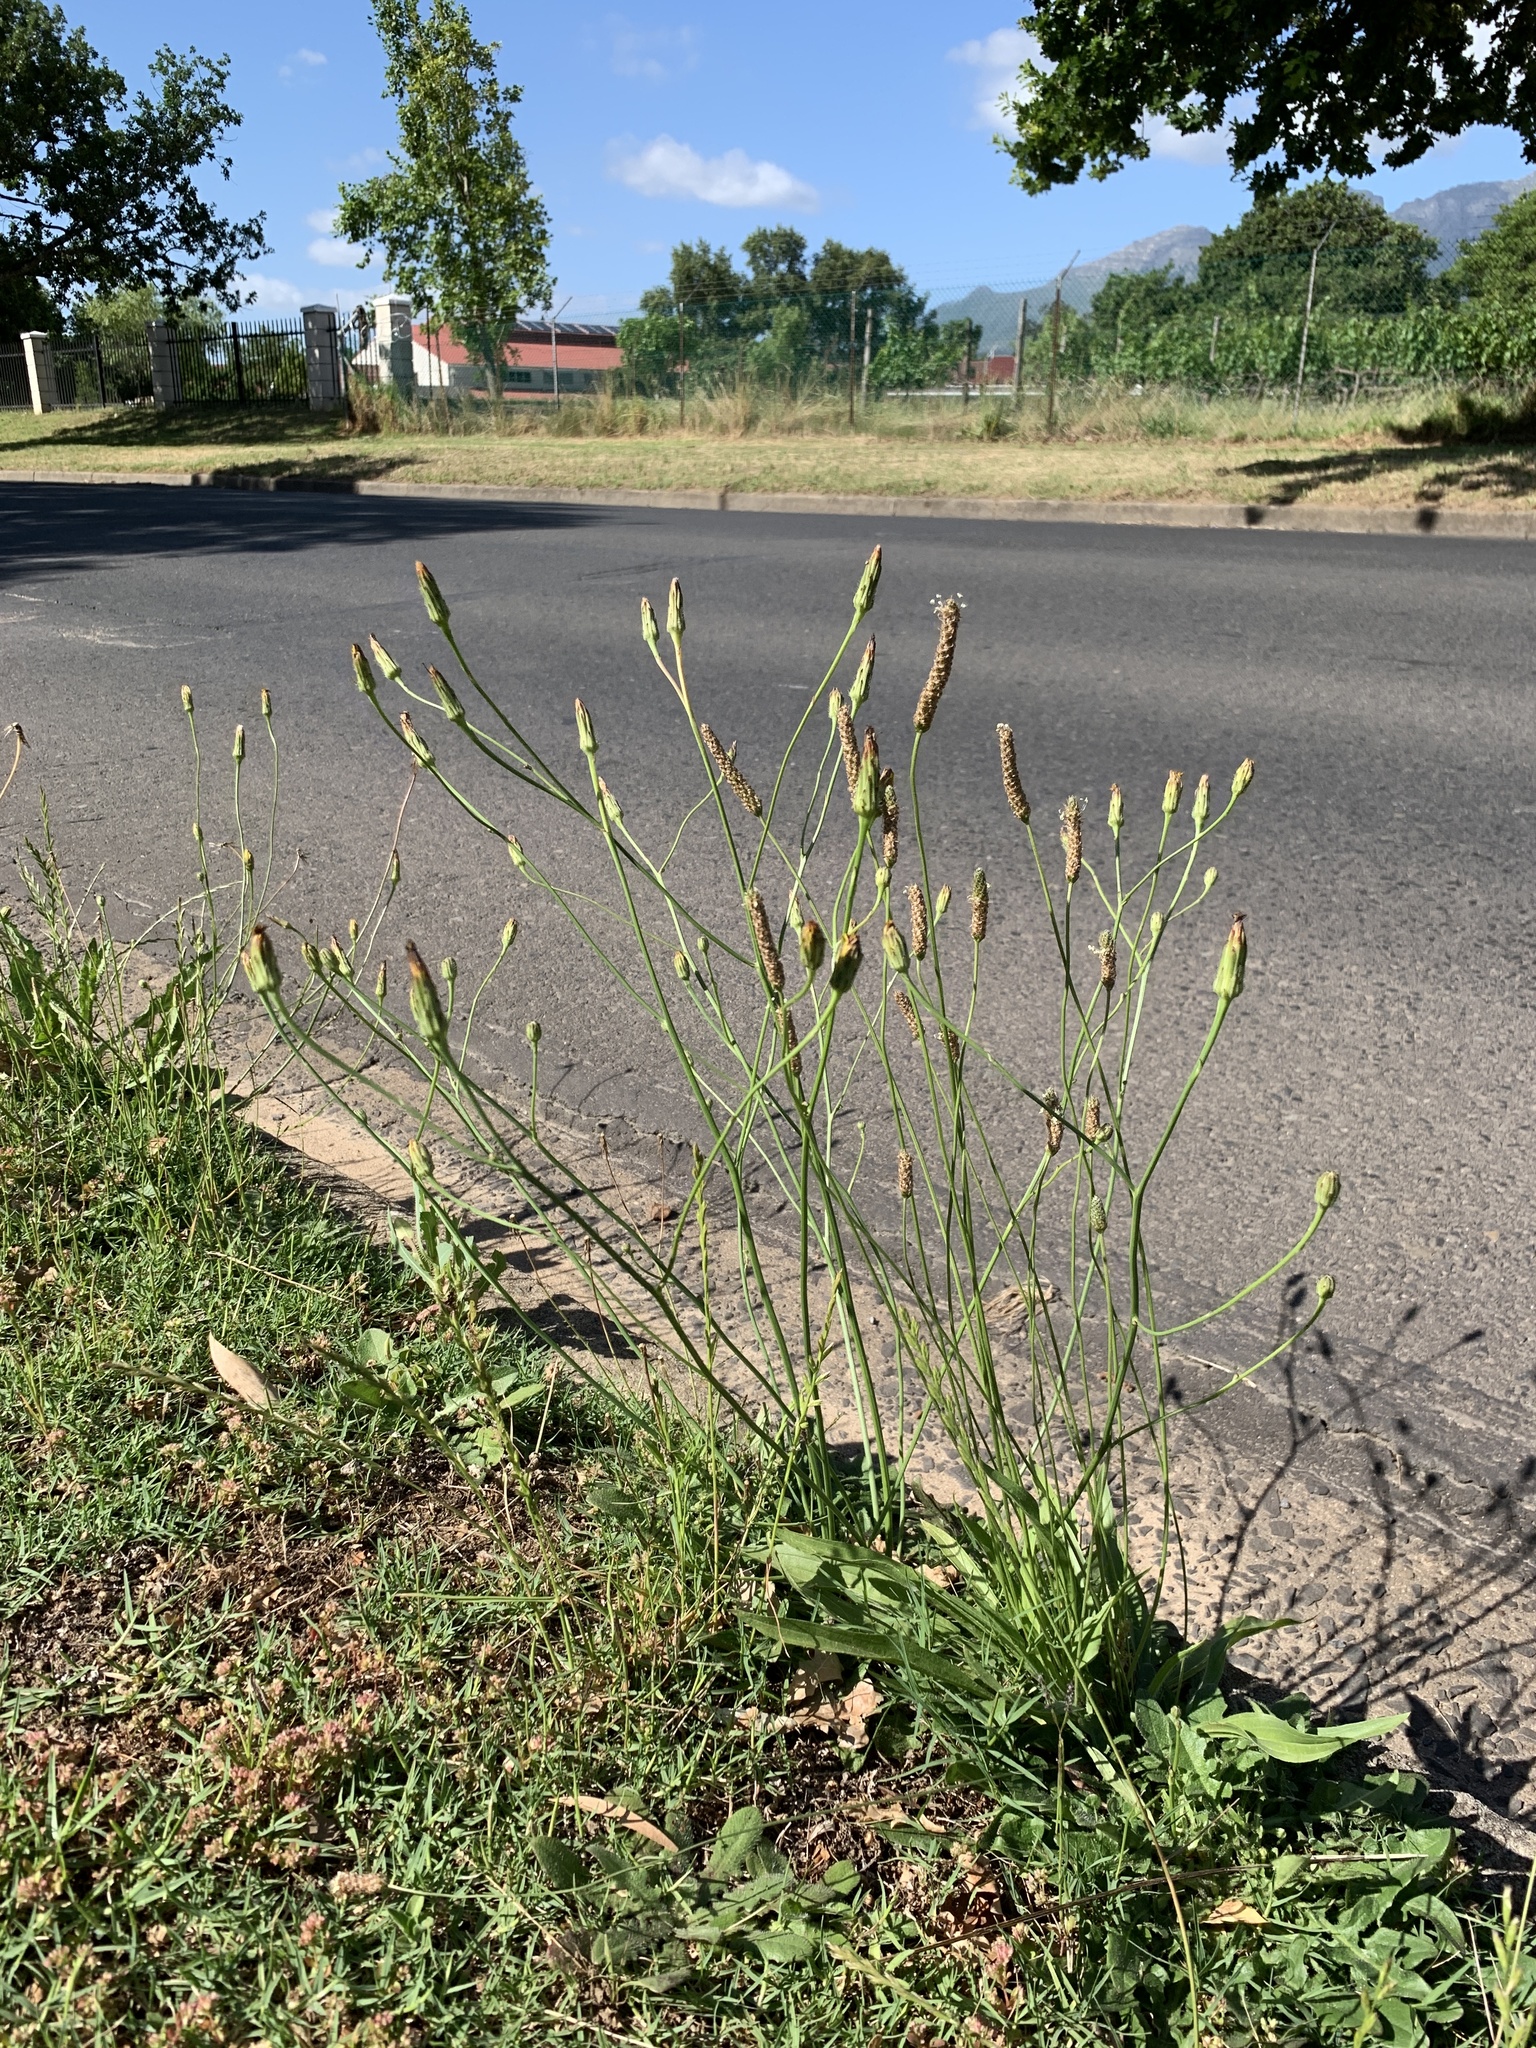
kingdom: Plantae
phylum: Tracheophyta
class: Magnoliopsida
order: Asterales
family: Asteraceae
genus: Hypochaeris
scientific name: Hypochaeris radicata
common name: Flatweed
